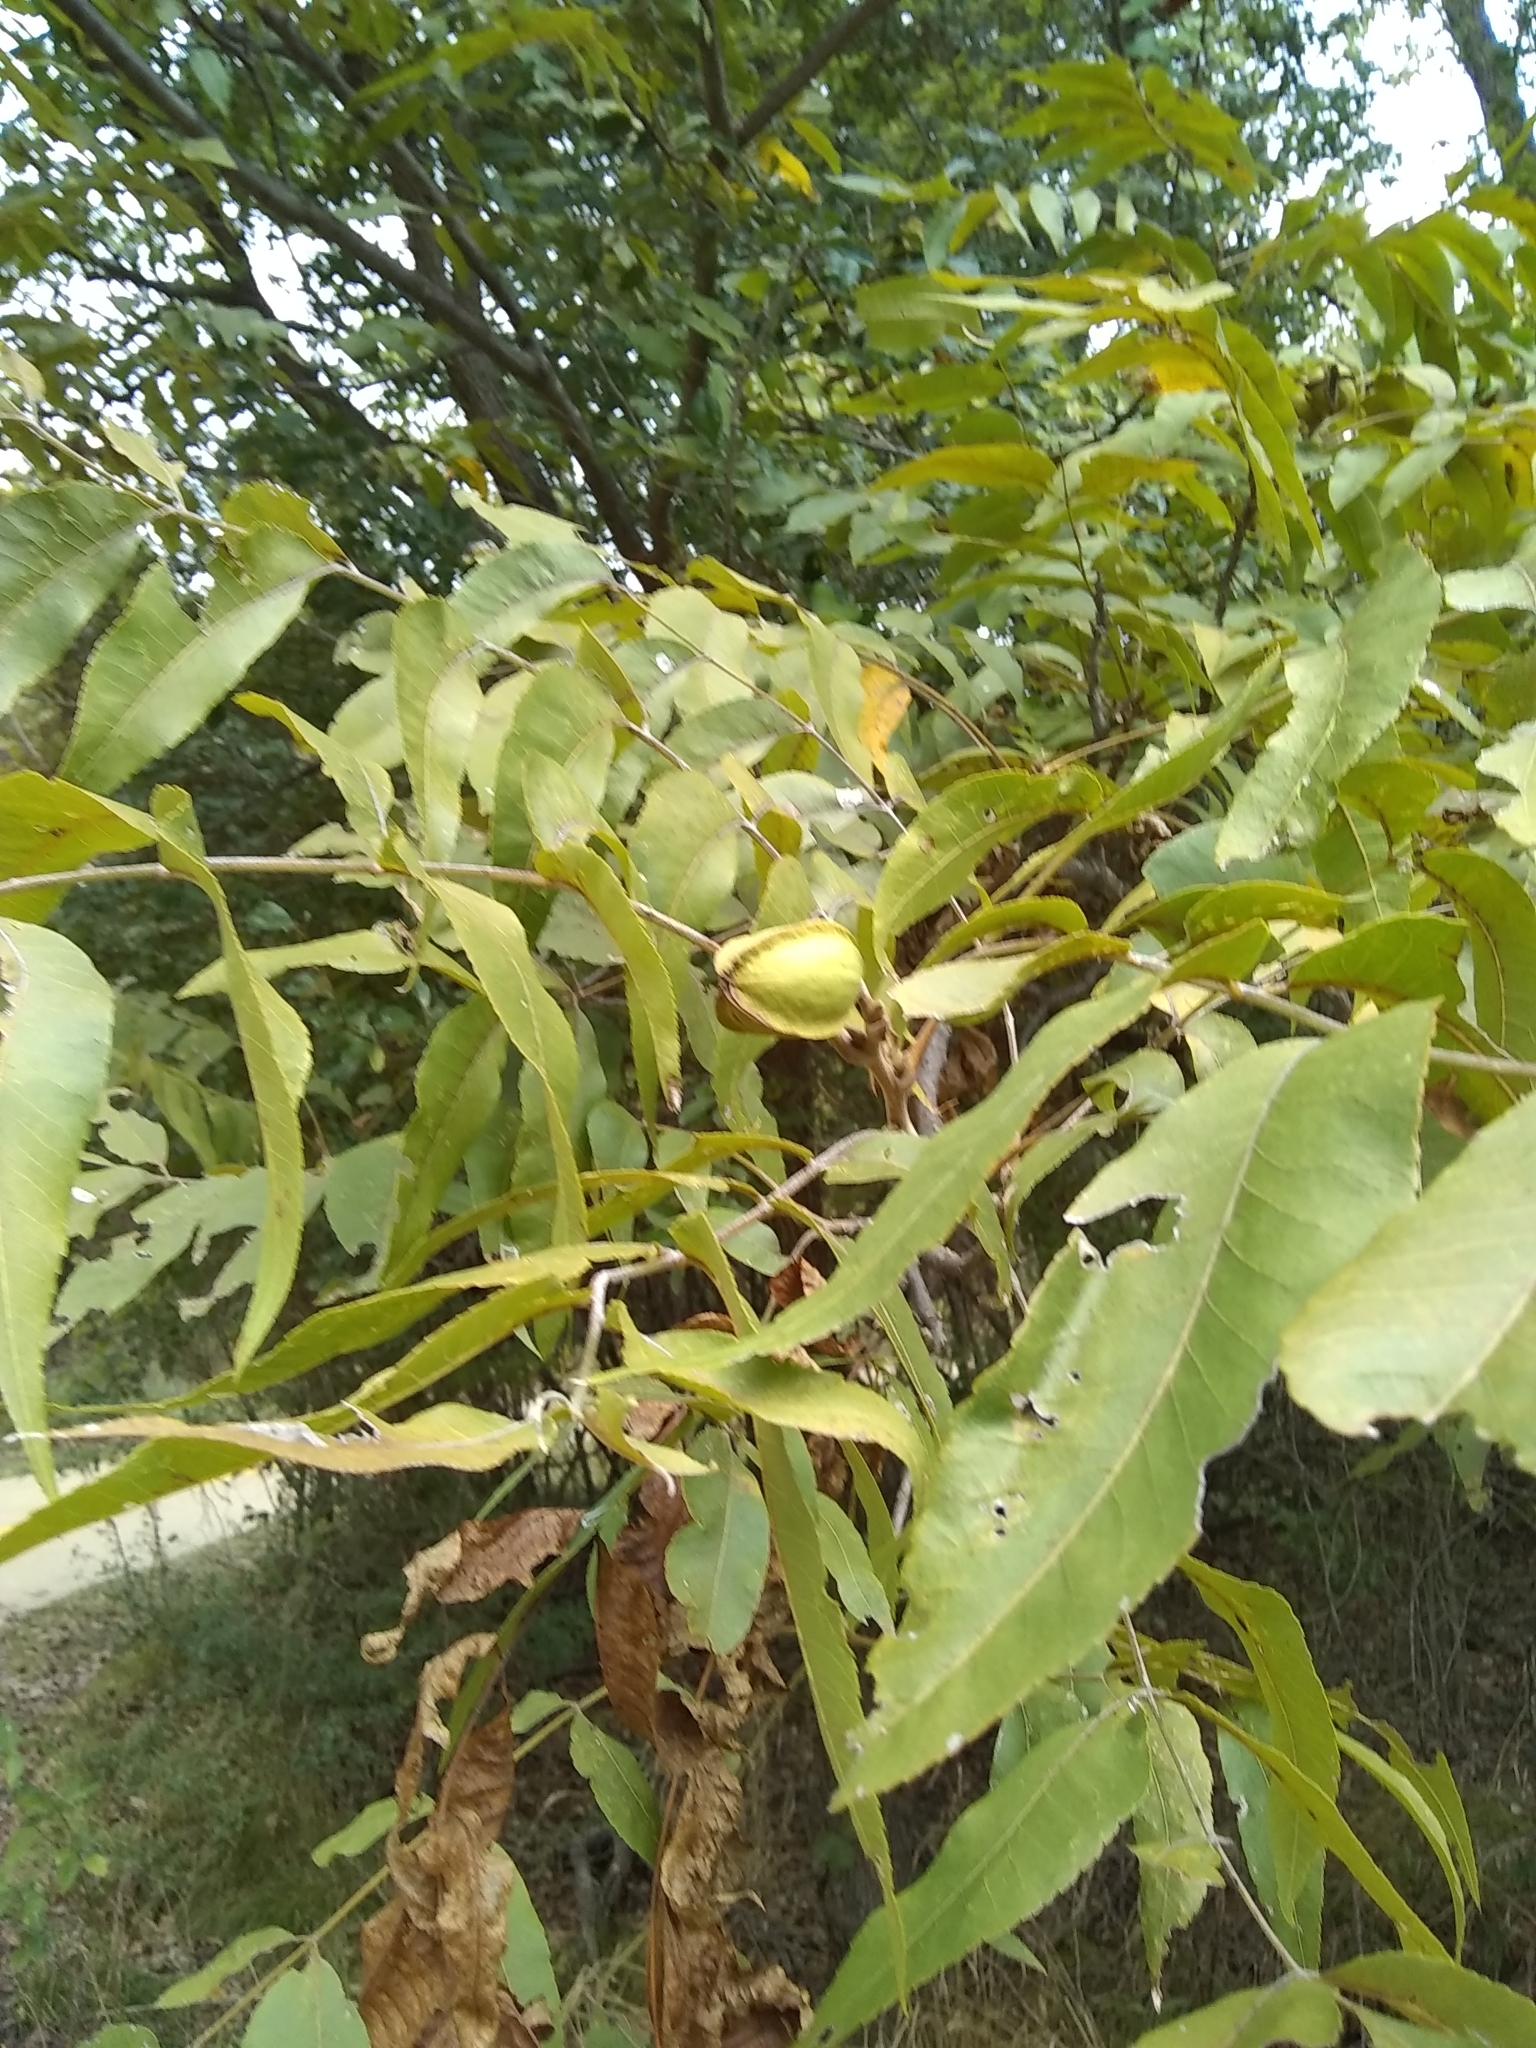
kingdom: Plantae
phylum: Tracheophyta
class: Magnoliopsida
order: Fagales
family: Juglandaceae
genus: Carya
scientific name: Carya illinoinensis
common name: Pecan
